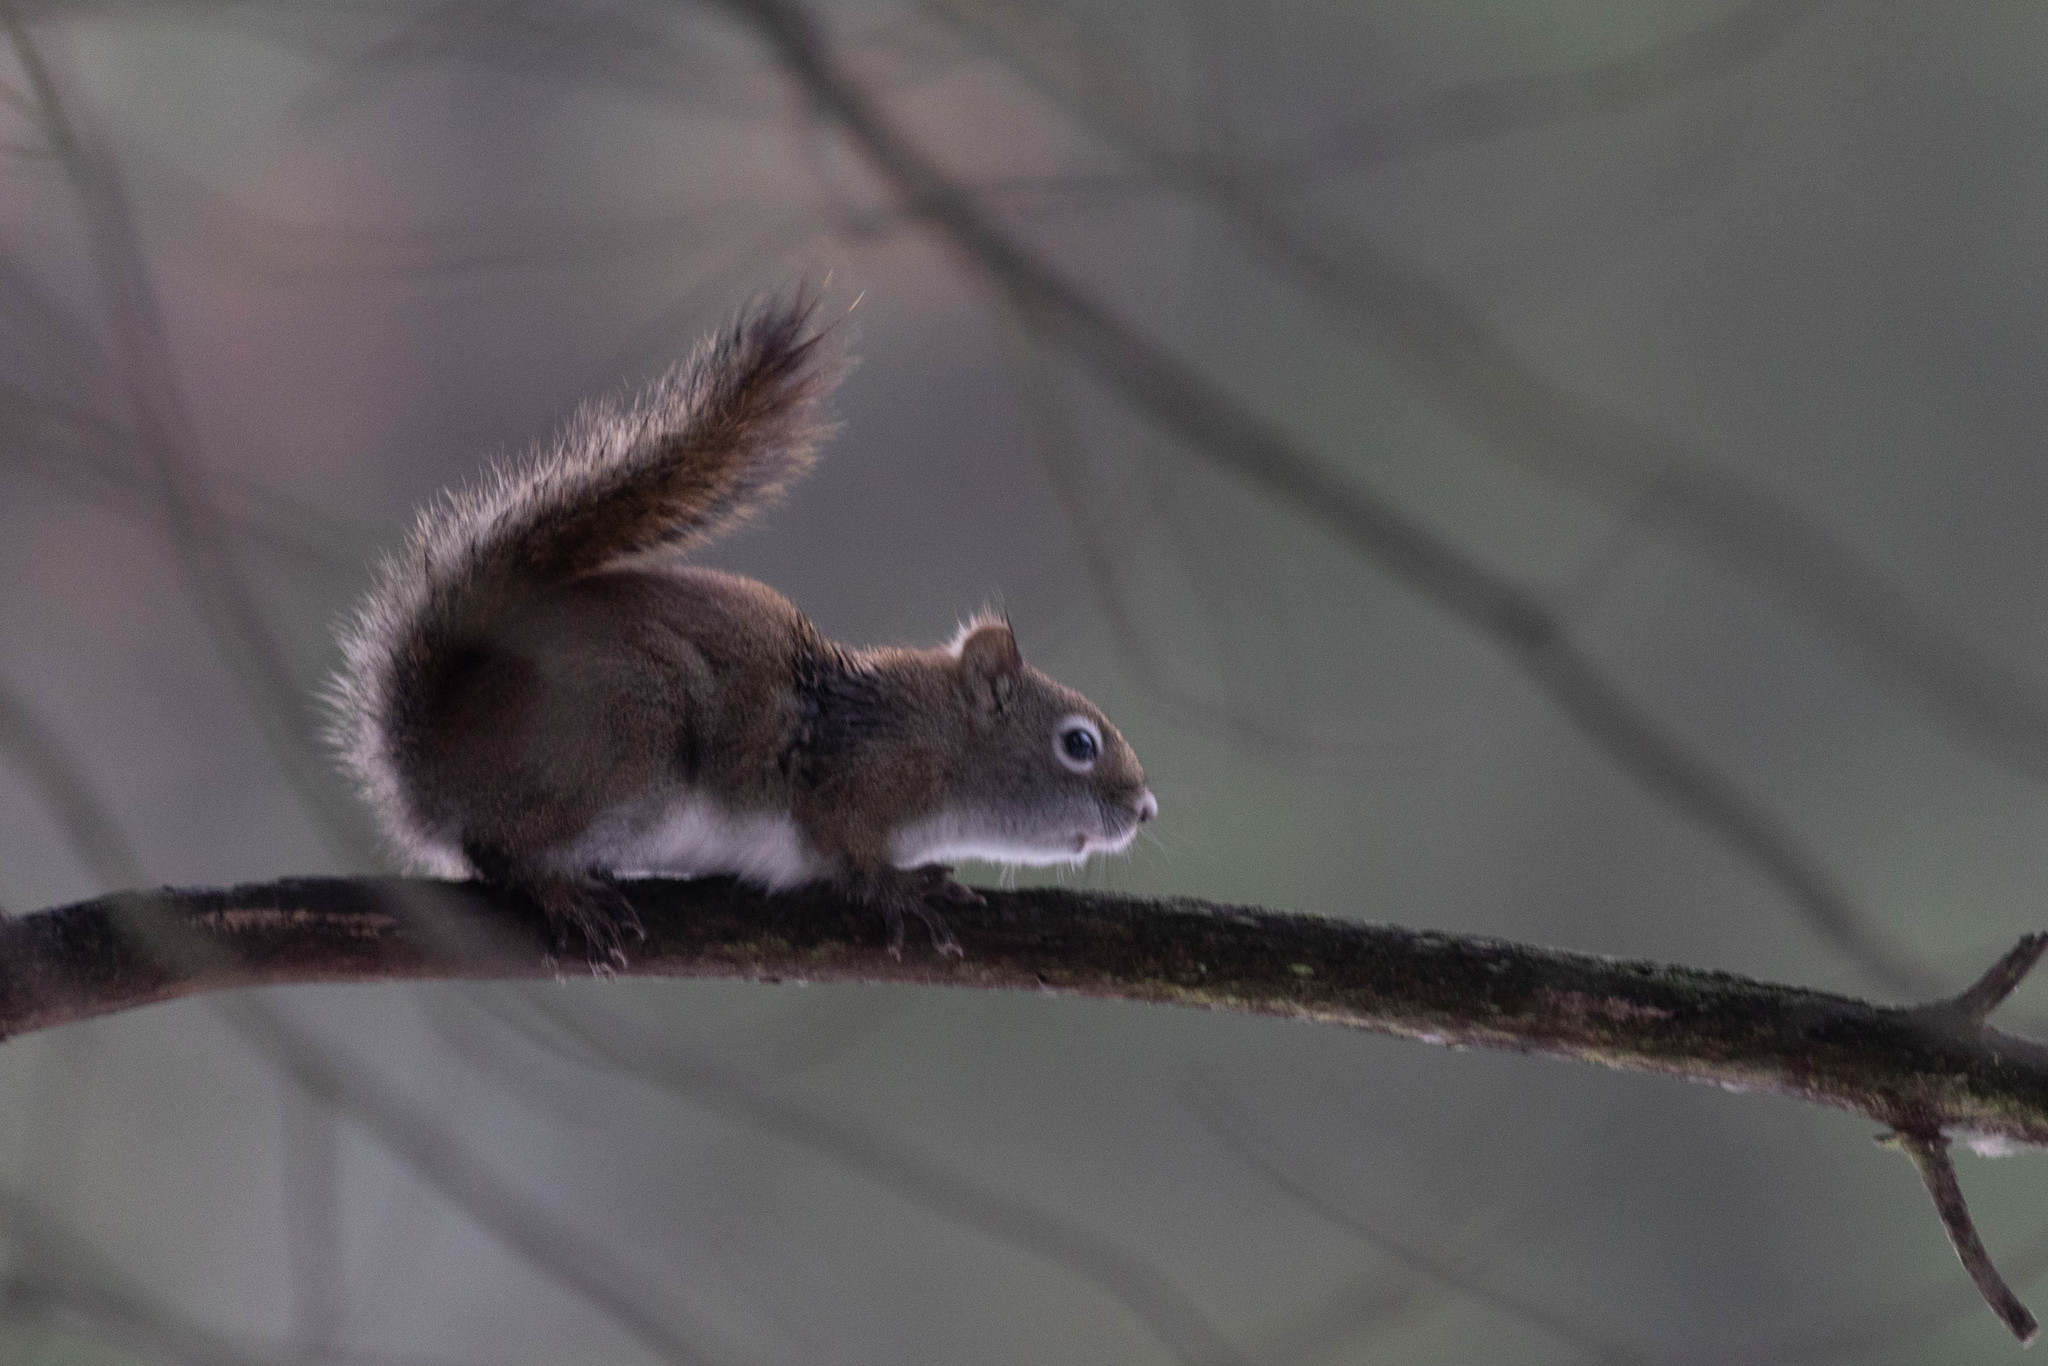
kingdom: Animalia
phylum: Chordata
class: Mammalia
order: Rodentia
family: Sciuridae
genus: Tamiasciurus
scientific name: Tamiasciurus hudsonicus
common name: Red squirrel
